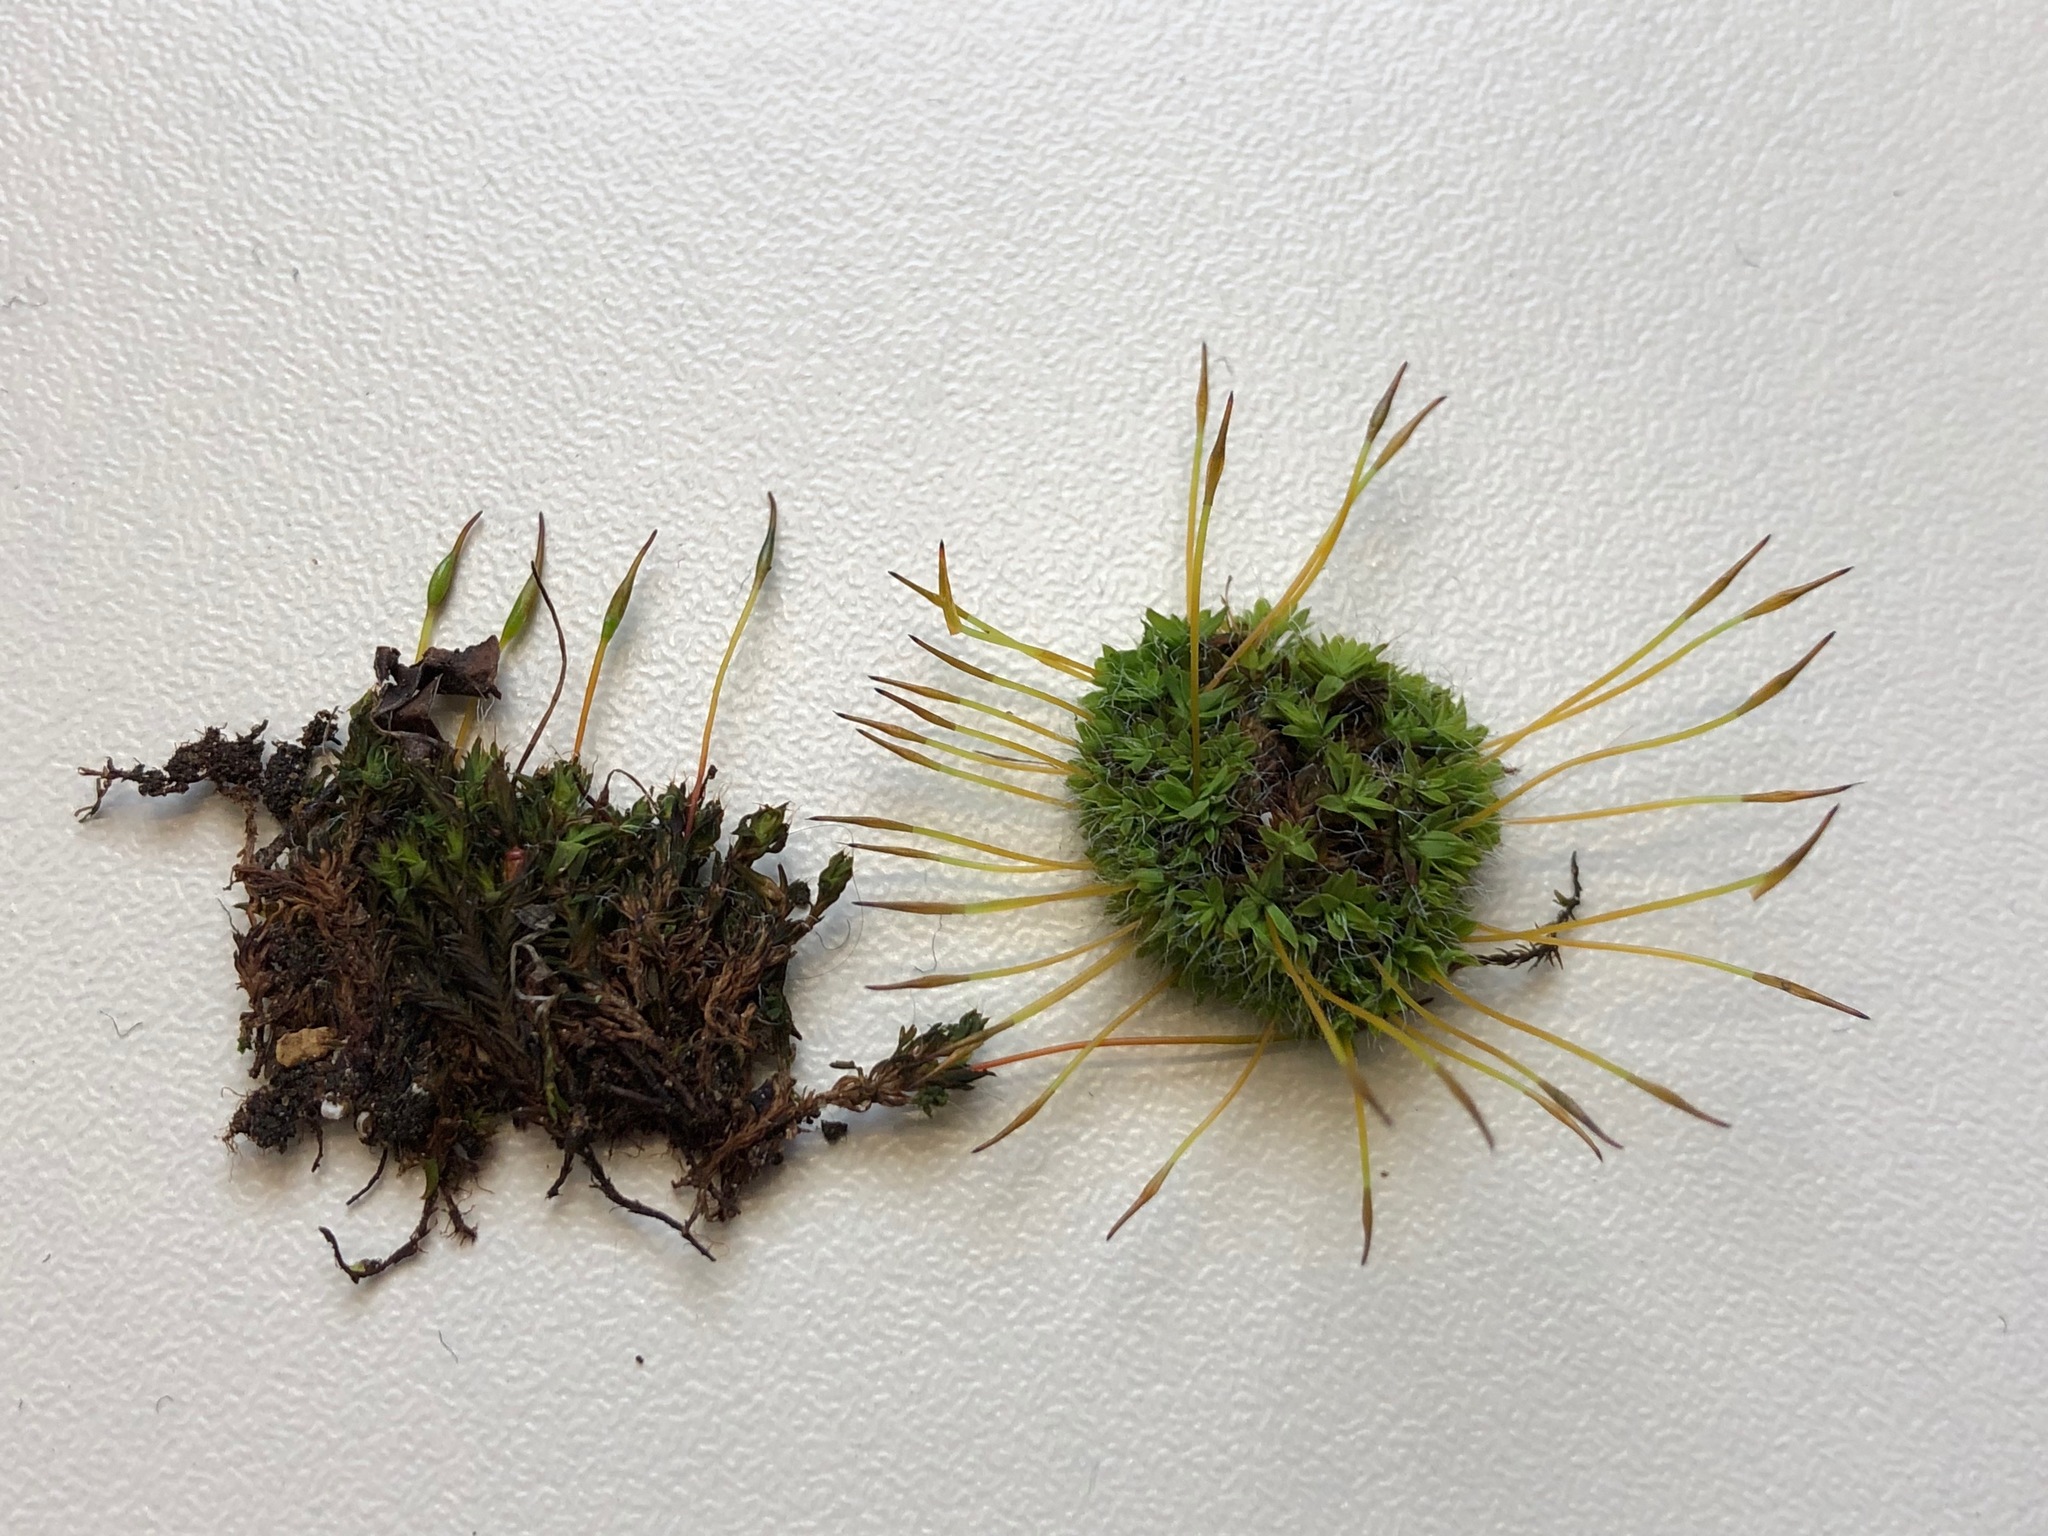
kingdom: Plantae
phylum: Bryophyta
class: Bryopsida
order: Pottiales
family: Pottiaceae
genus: Tortula
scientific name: Tortula muralis
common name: Wall screw-moss
